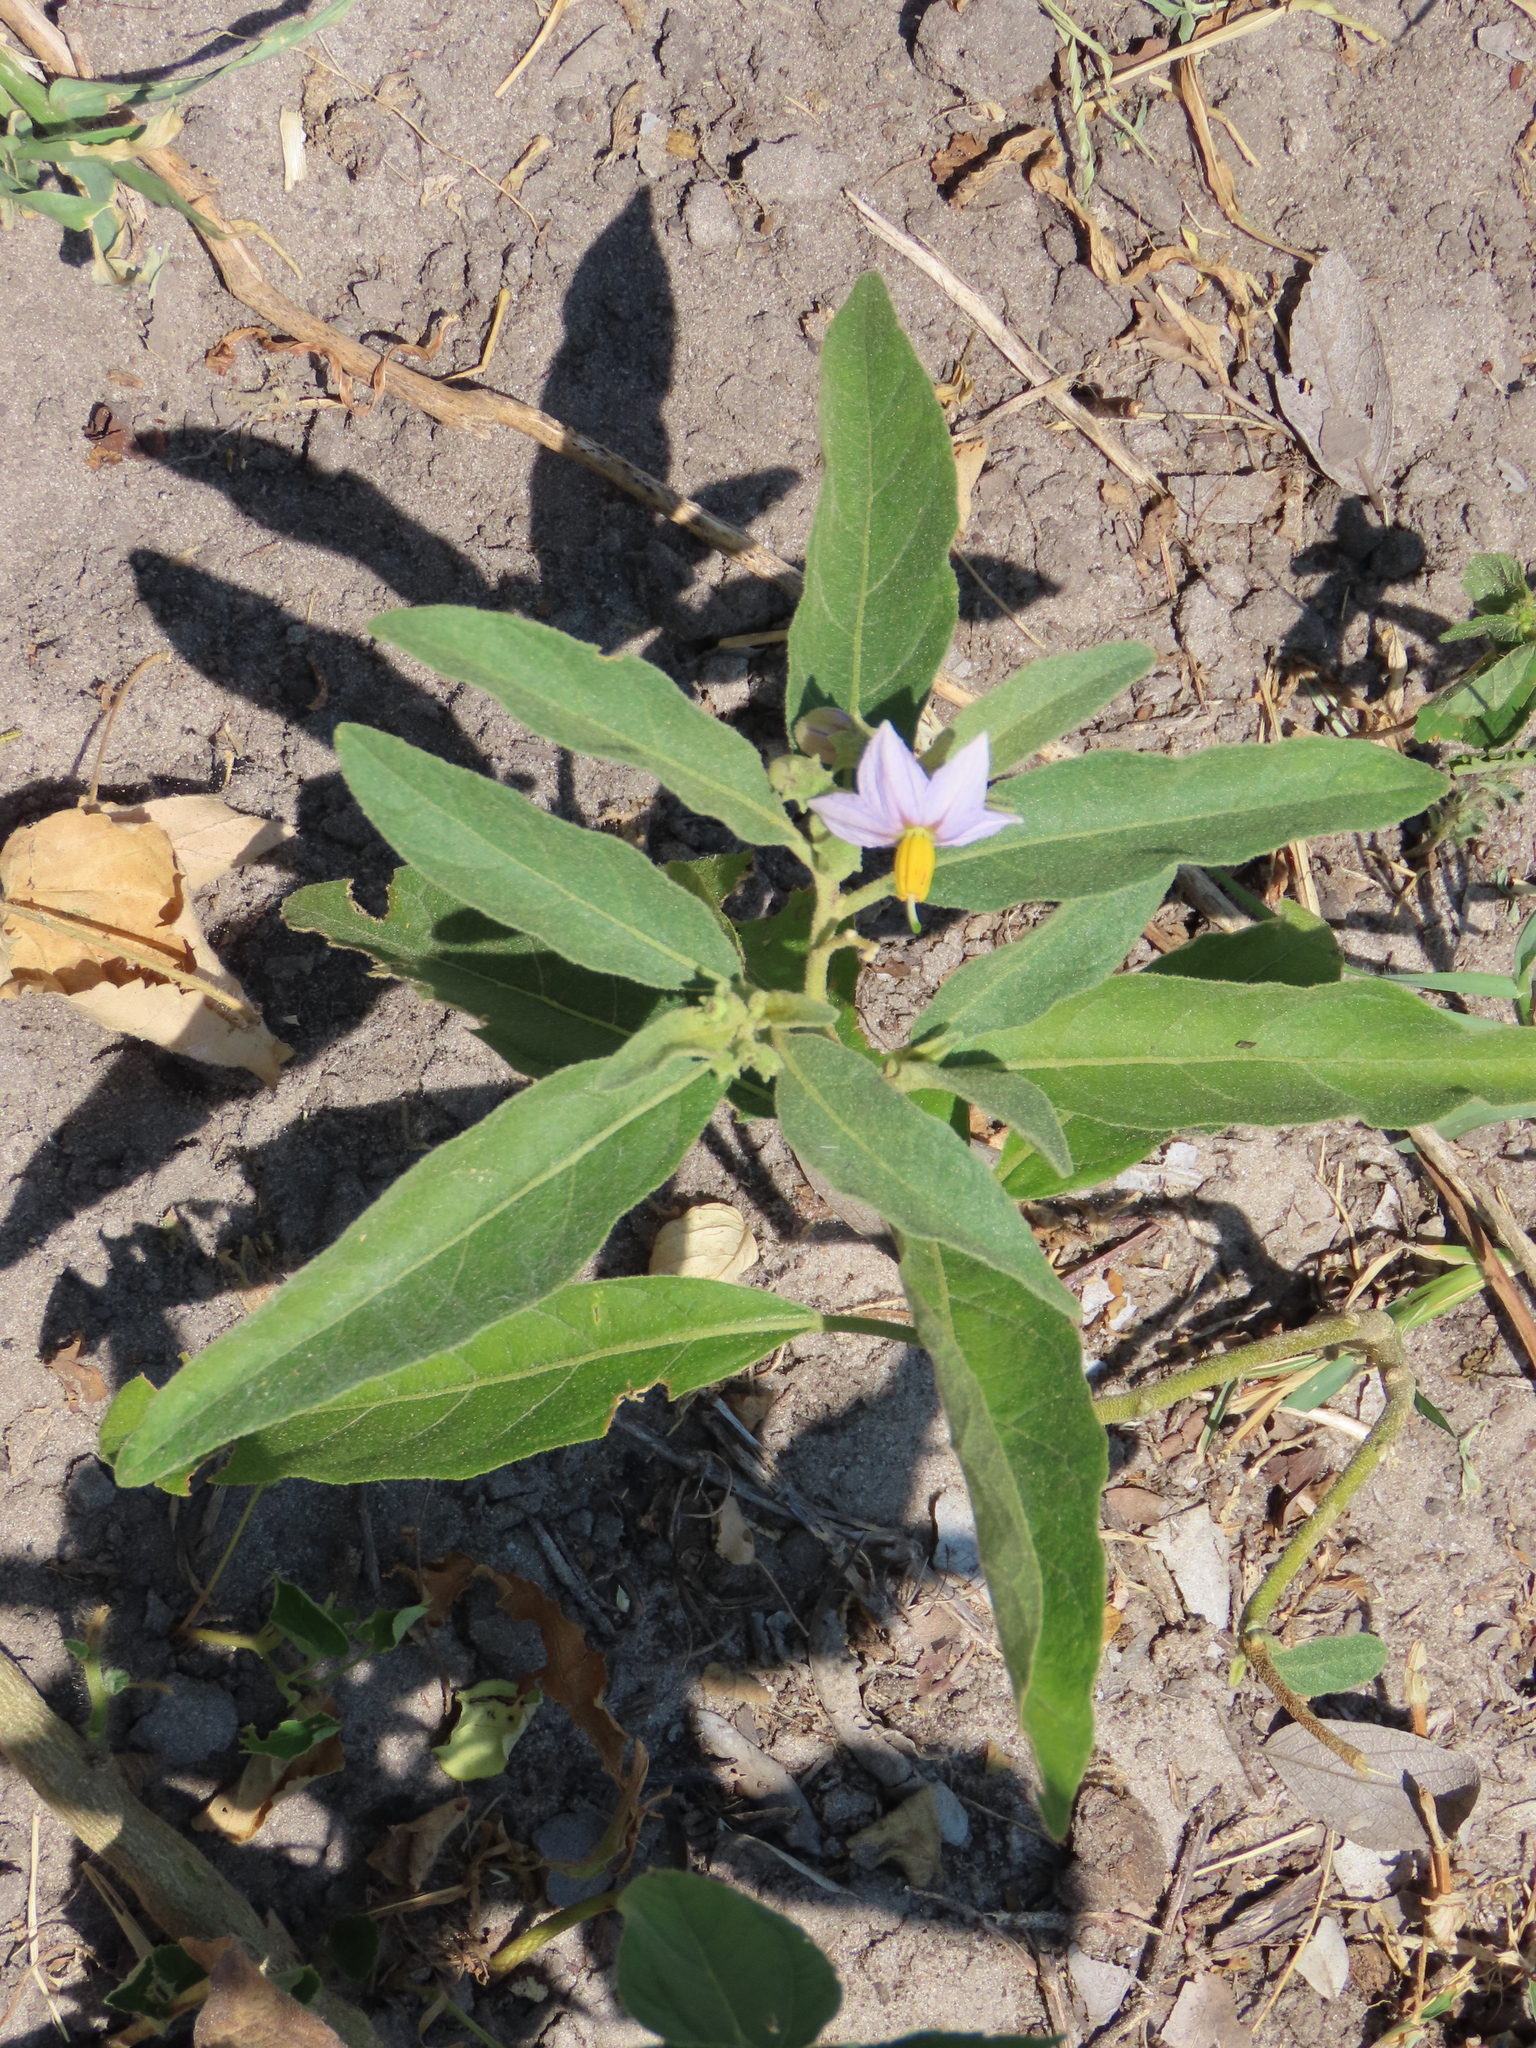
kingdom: Plantae
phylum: Tracheophyta
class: Magnoliopsida
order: Solanales
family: Solanaceae
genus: Solanum
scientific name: Solanum campylacanthum
